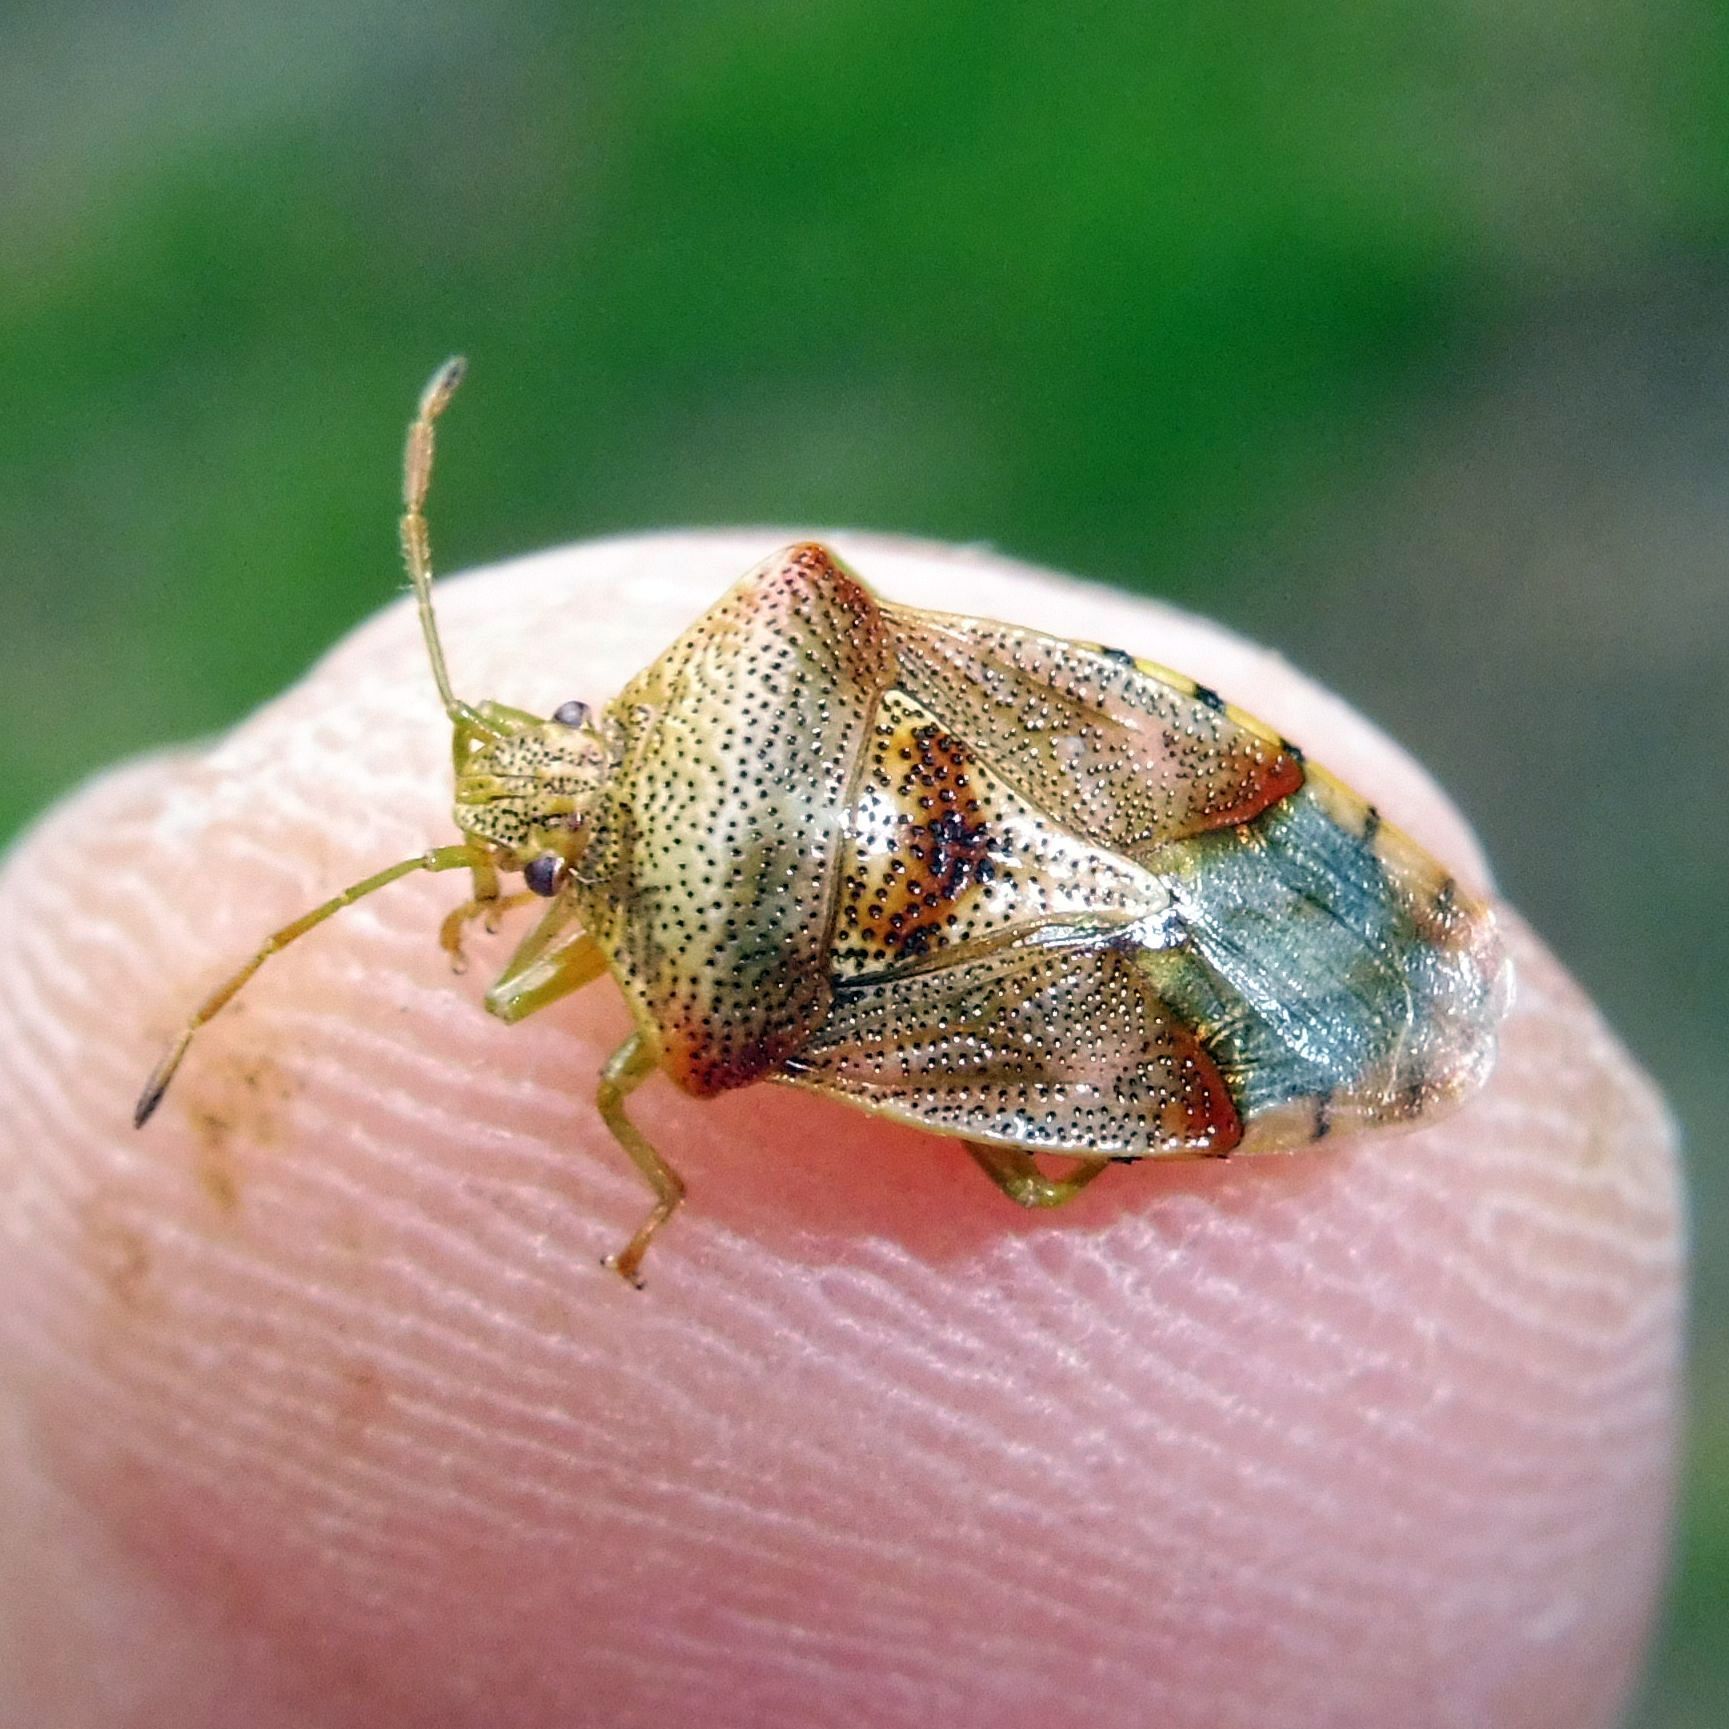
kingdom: Animalia
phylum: Arthropoda
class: Insecta
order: Hemiptera
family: Acanthosomatidae
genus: Elasmucha
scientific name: Elasmucha grisea
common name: Parent bug
